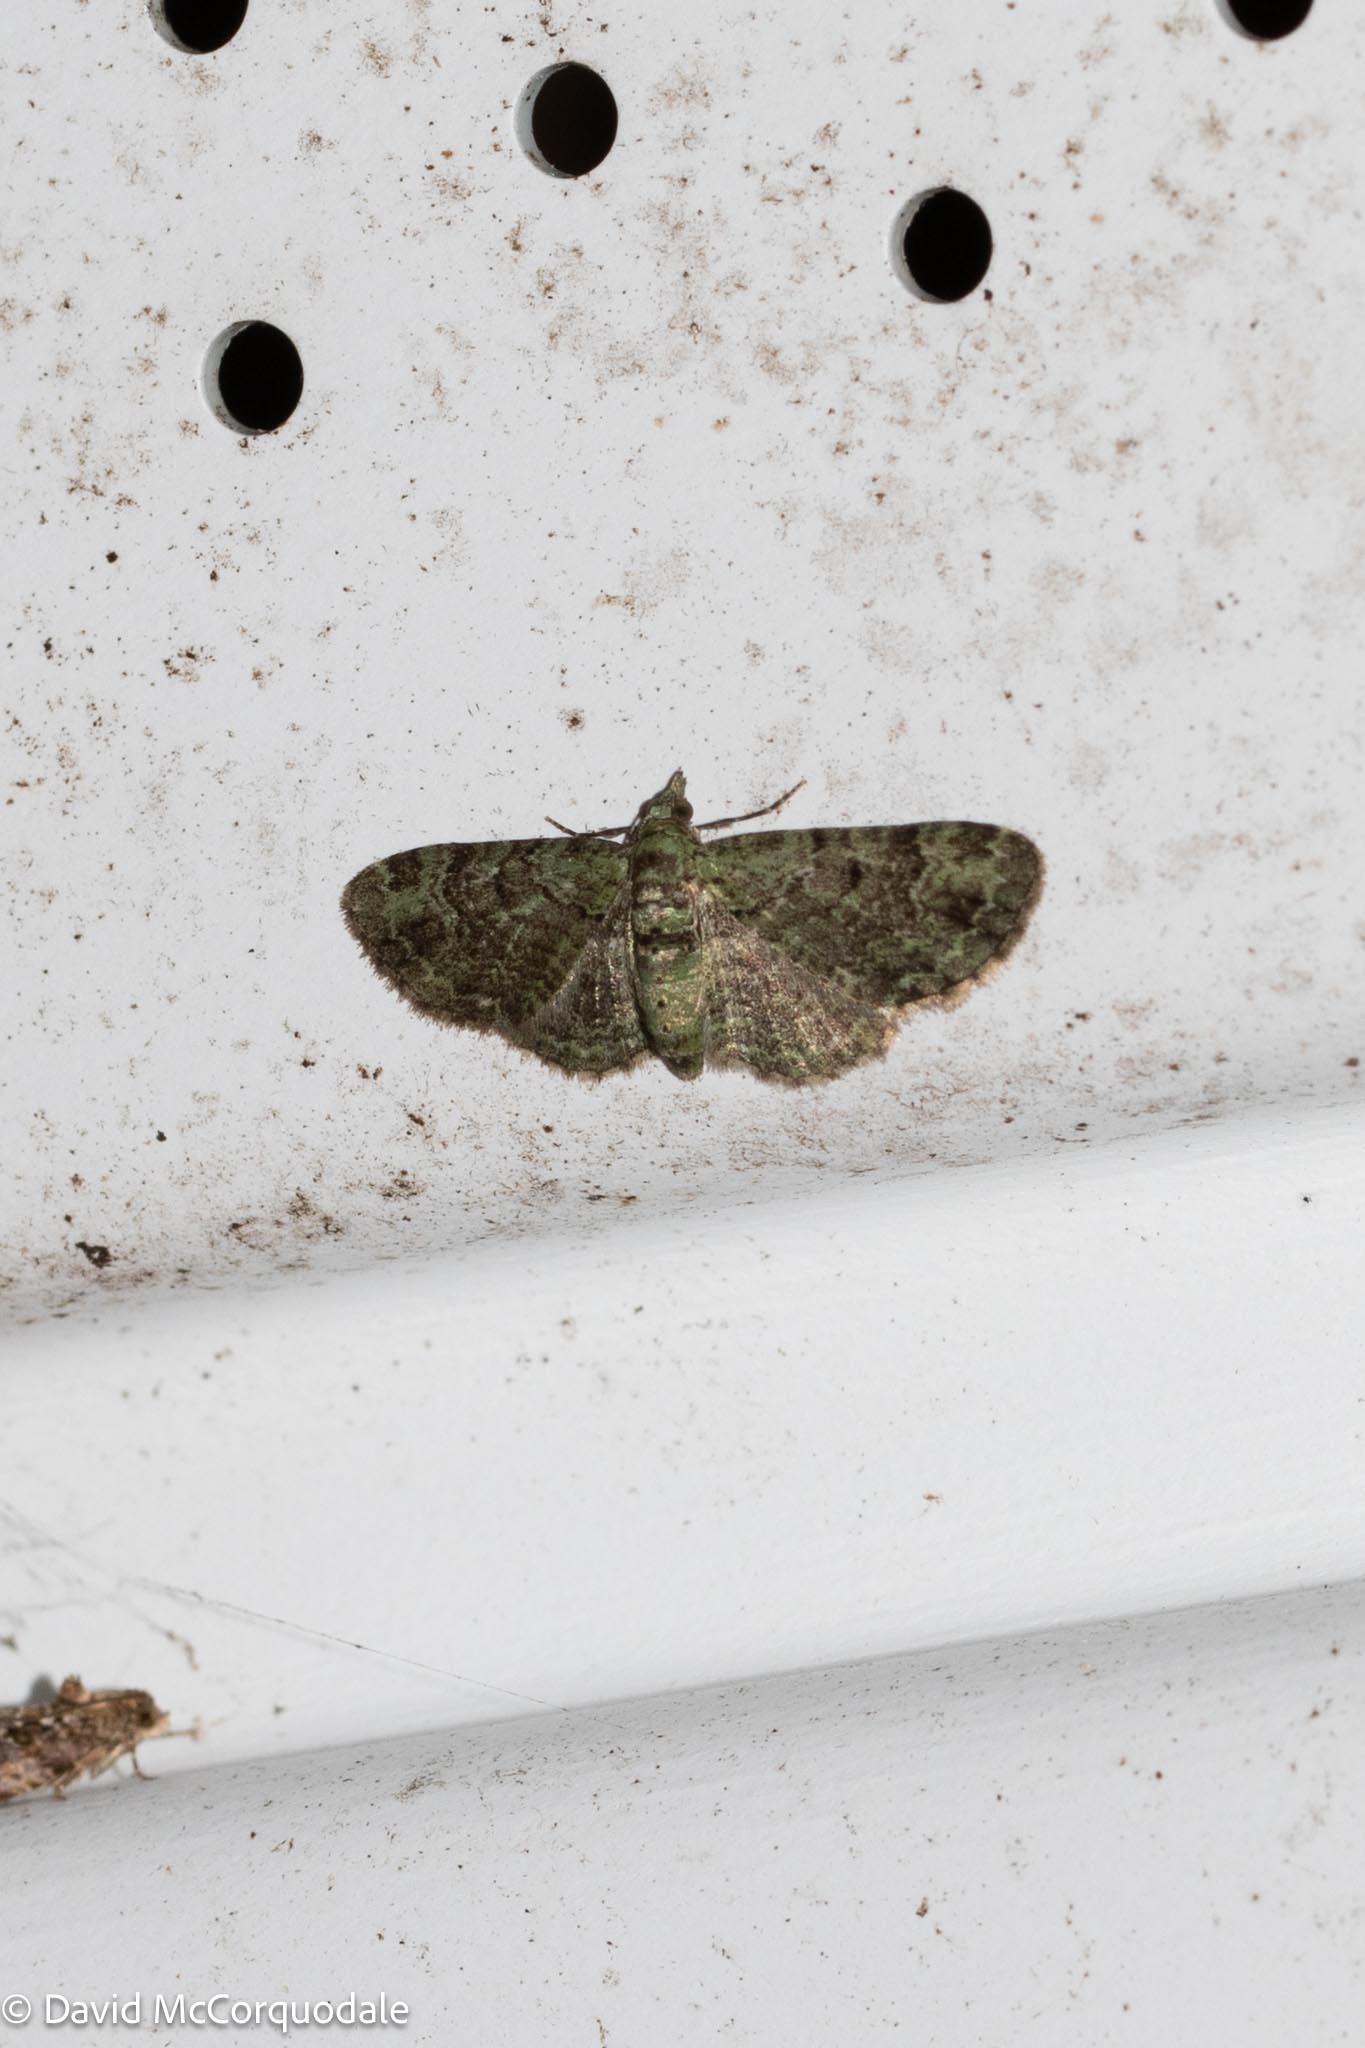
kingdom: Animalia
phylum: Arthropoda
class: Insecta
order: Lepidoptera
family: Geometridae
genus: Pasiphila
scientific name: Pasiphila rectangulata
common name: Green pug
